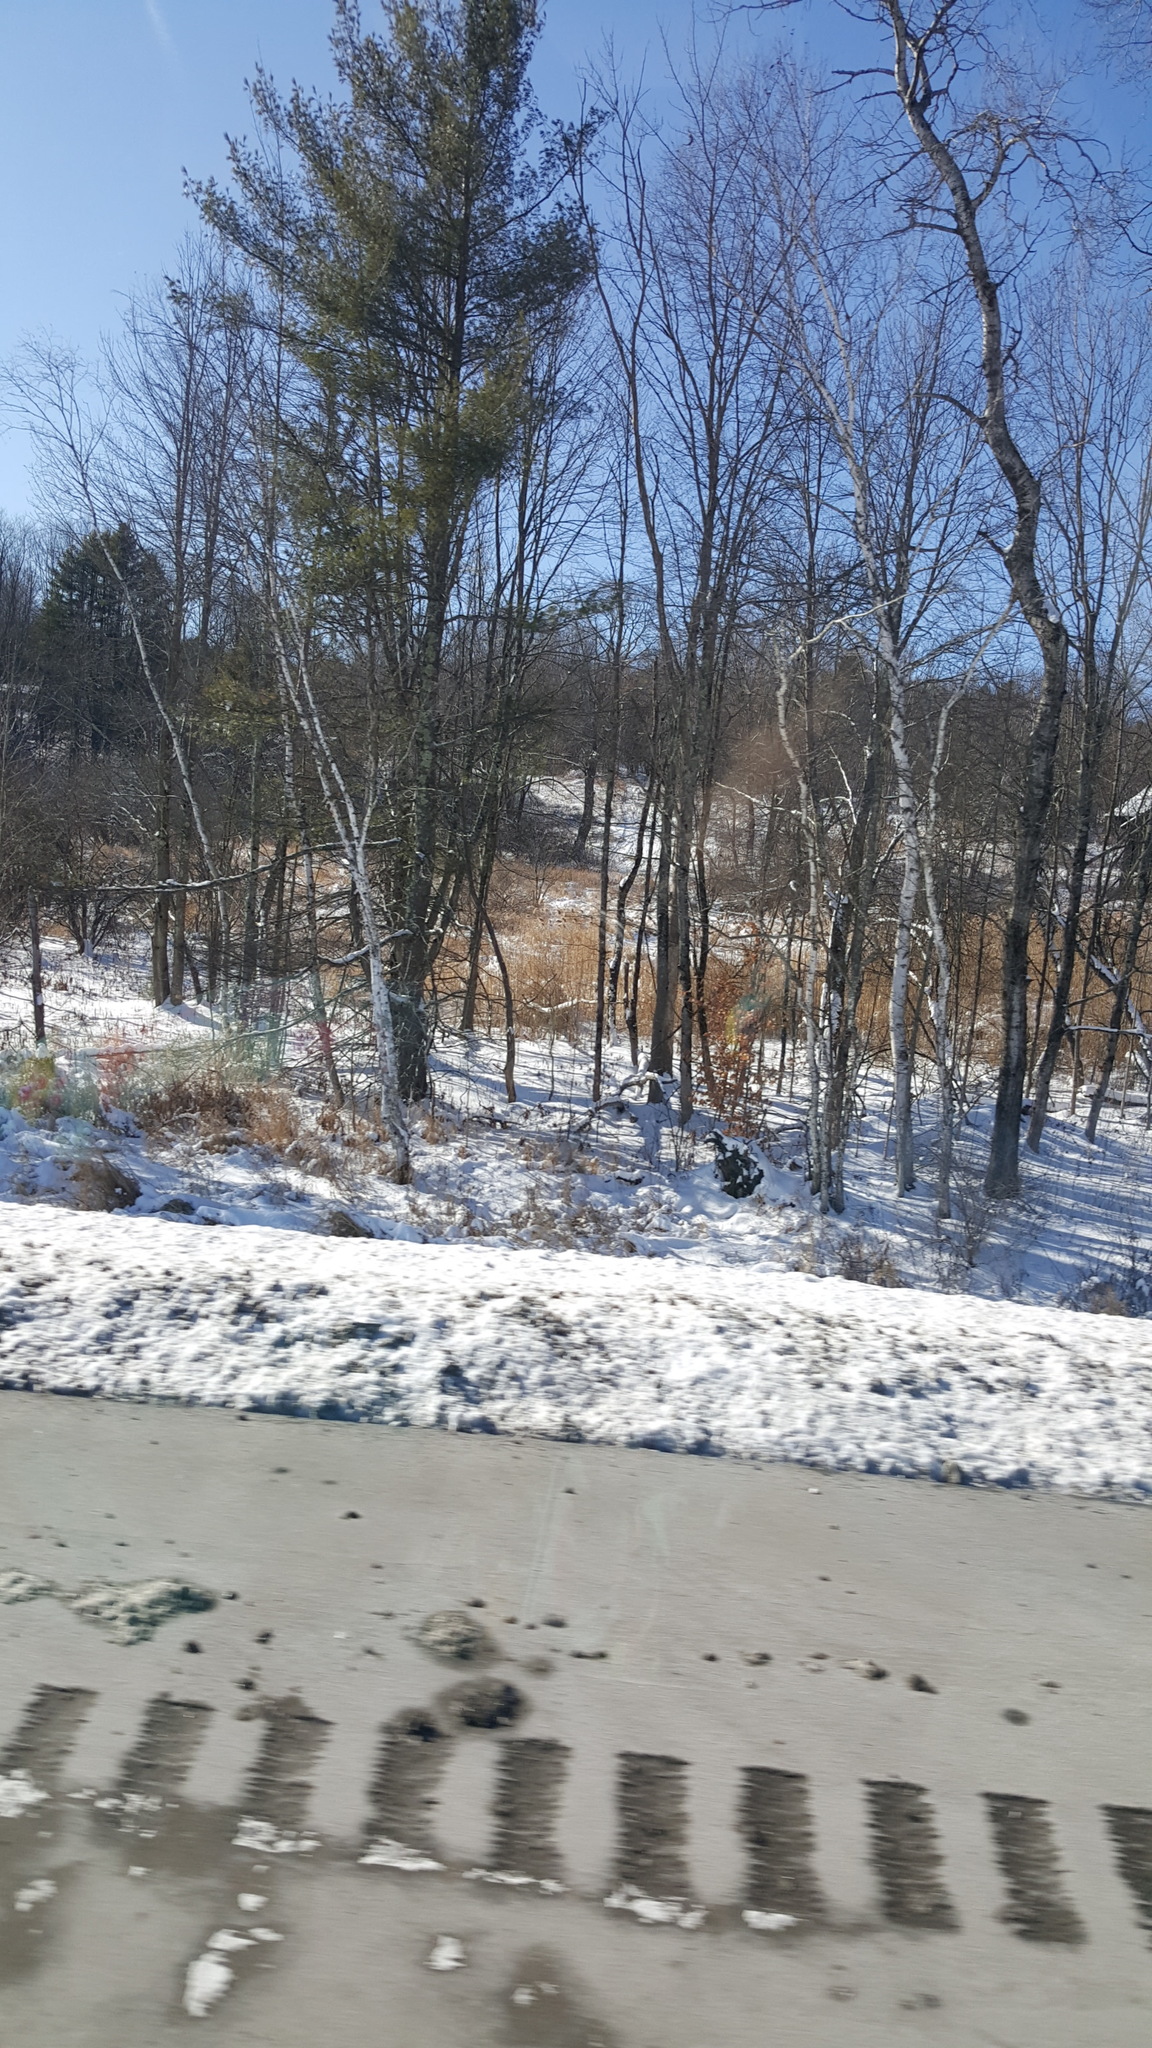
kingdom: Plantae
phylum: Tracheophyta
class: Liliopsida
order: Poales
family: Poaceae
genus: Phragmites
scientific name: Phragmites australis
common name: Common reed
